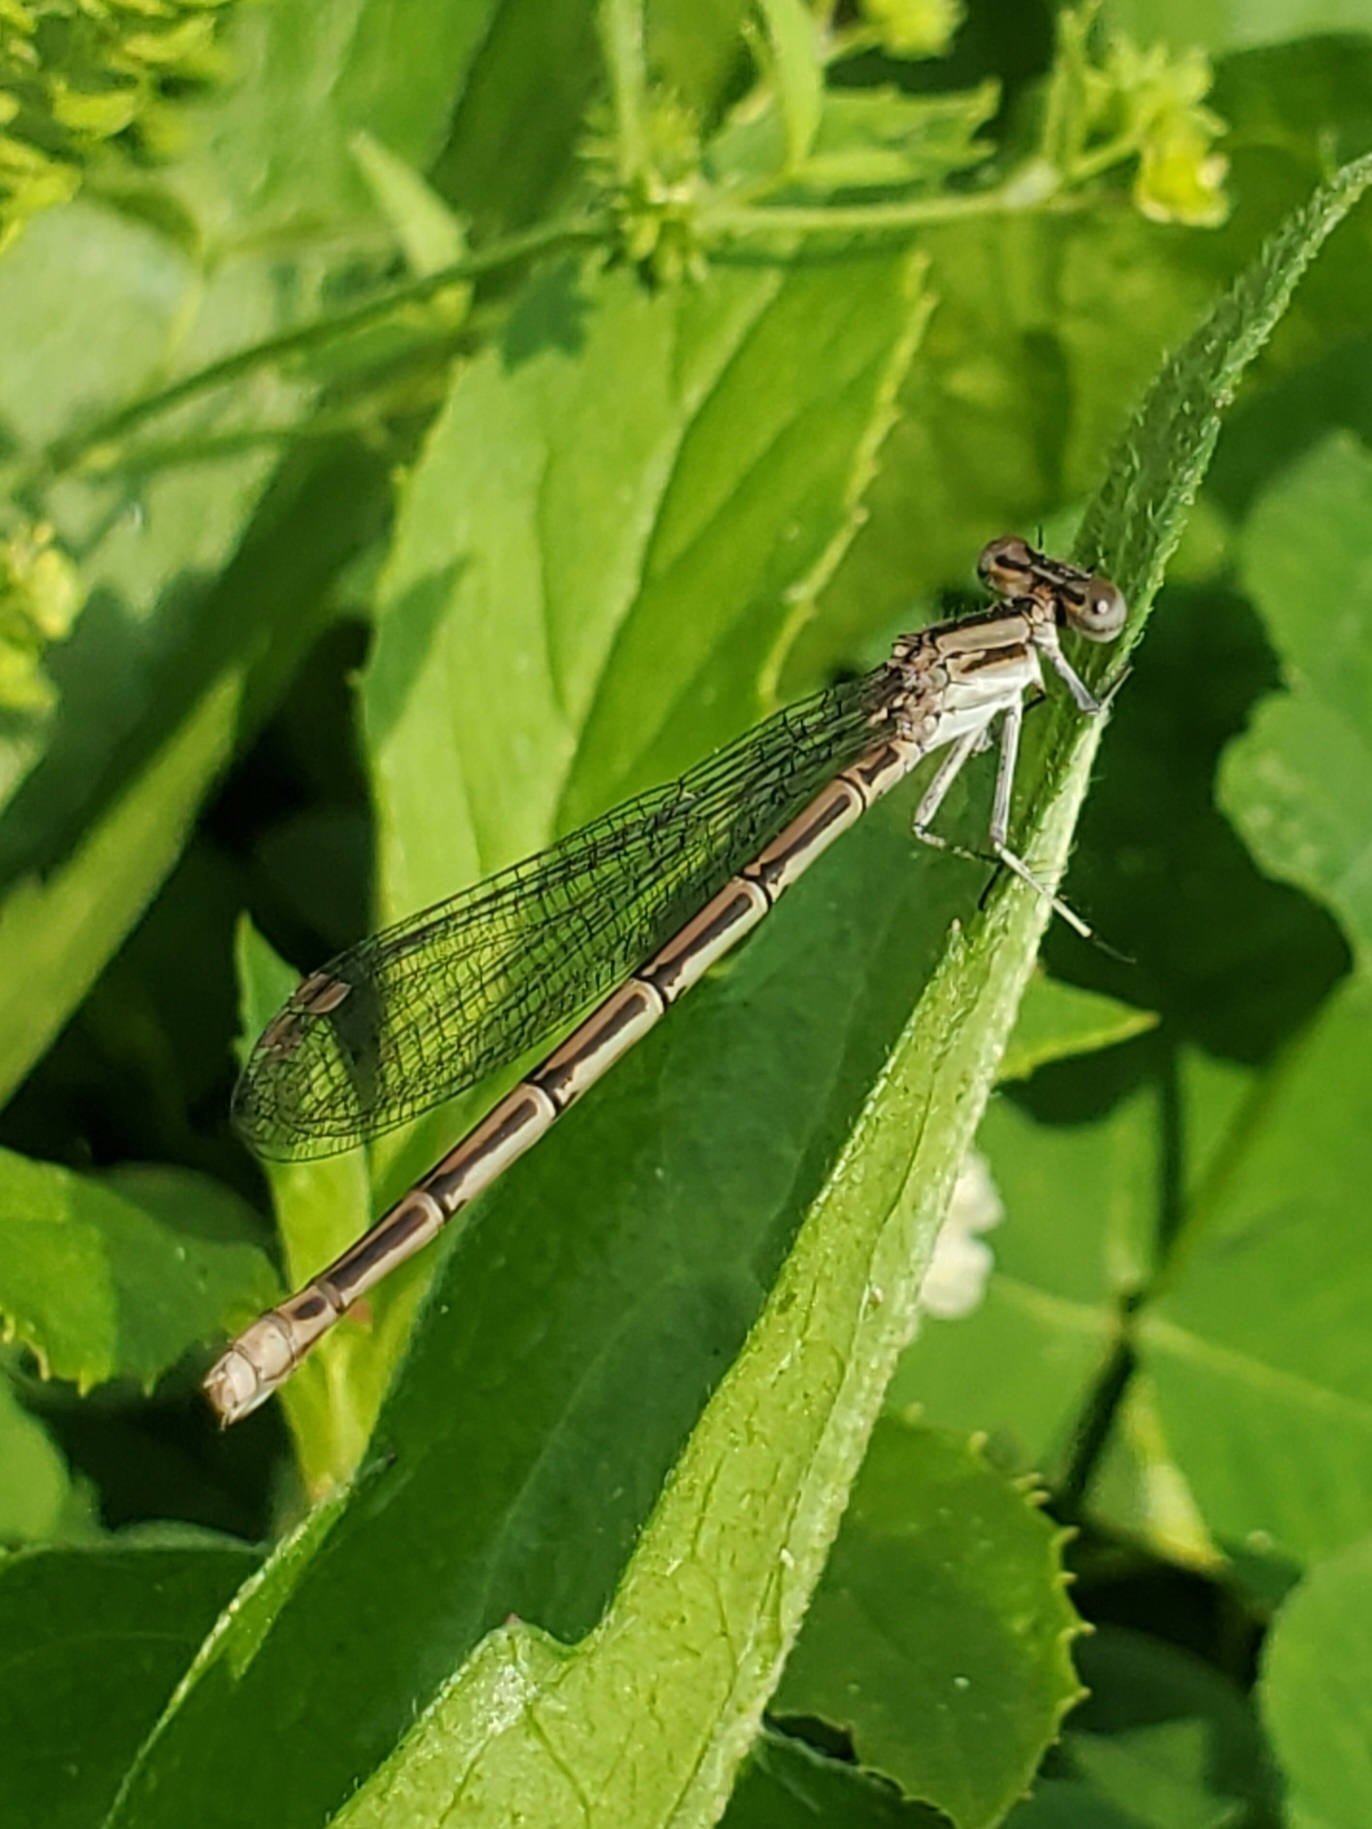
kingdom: Animalia
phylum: Arthropoda
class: Insecta
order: Odonata
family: Coenagrionidae
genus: Argia
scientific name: Argia fumipennis
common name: Variable dancer
